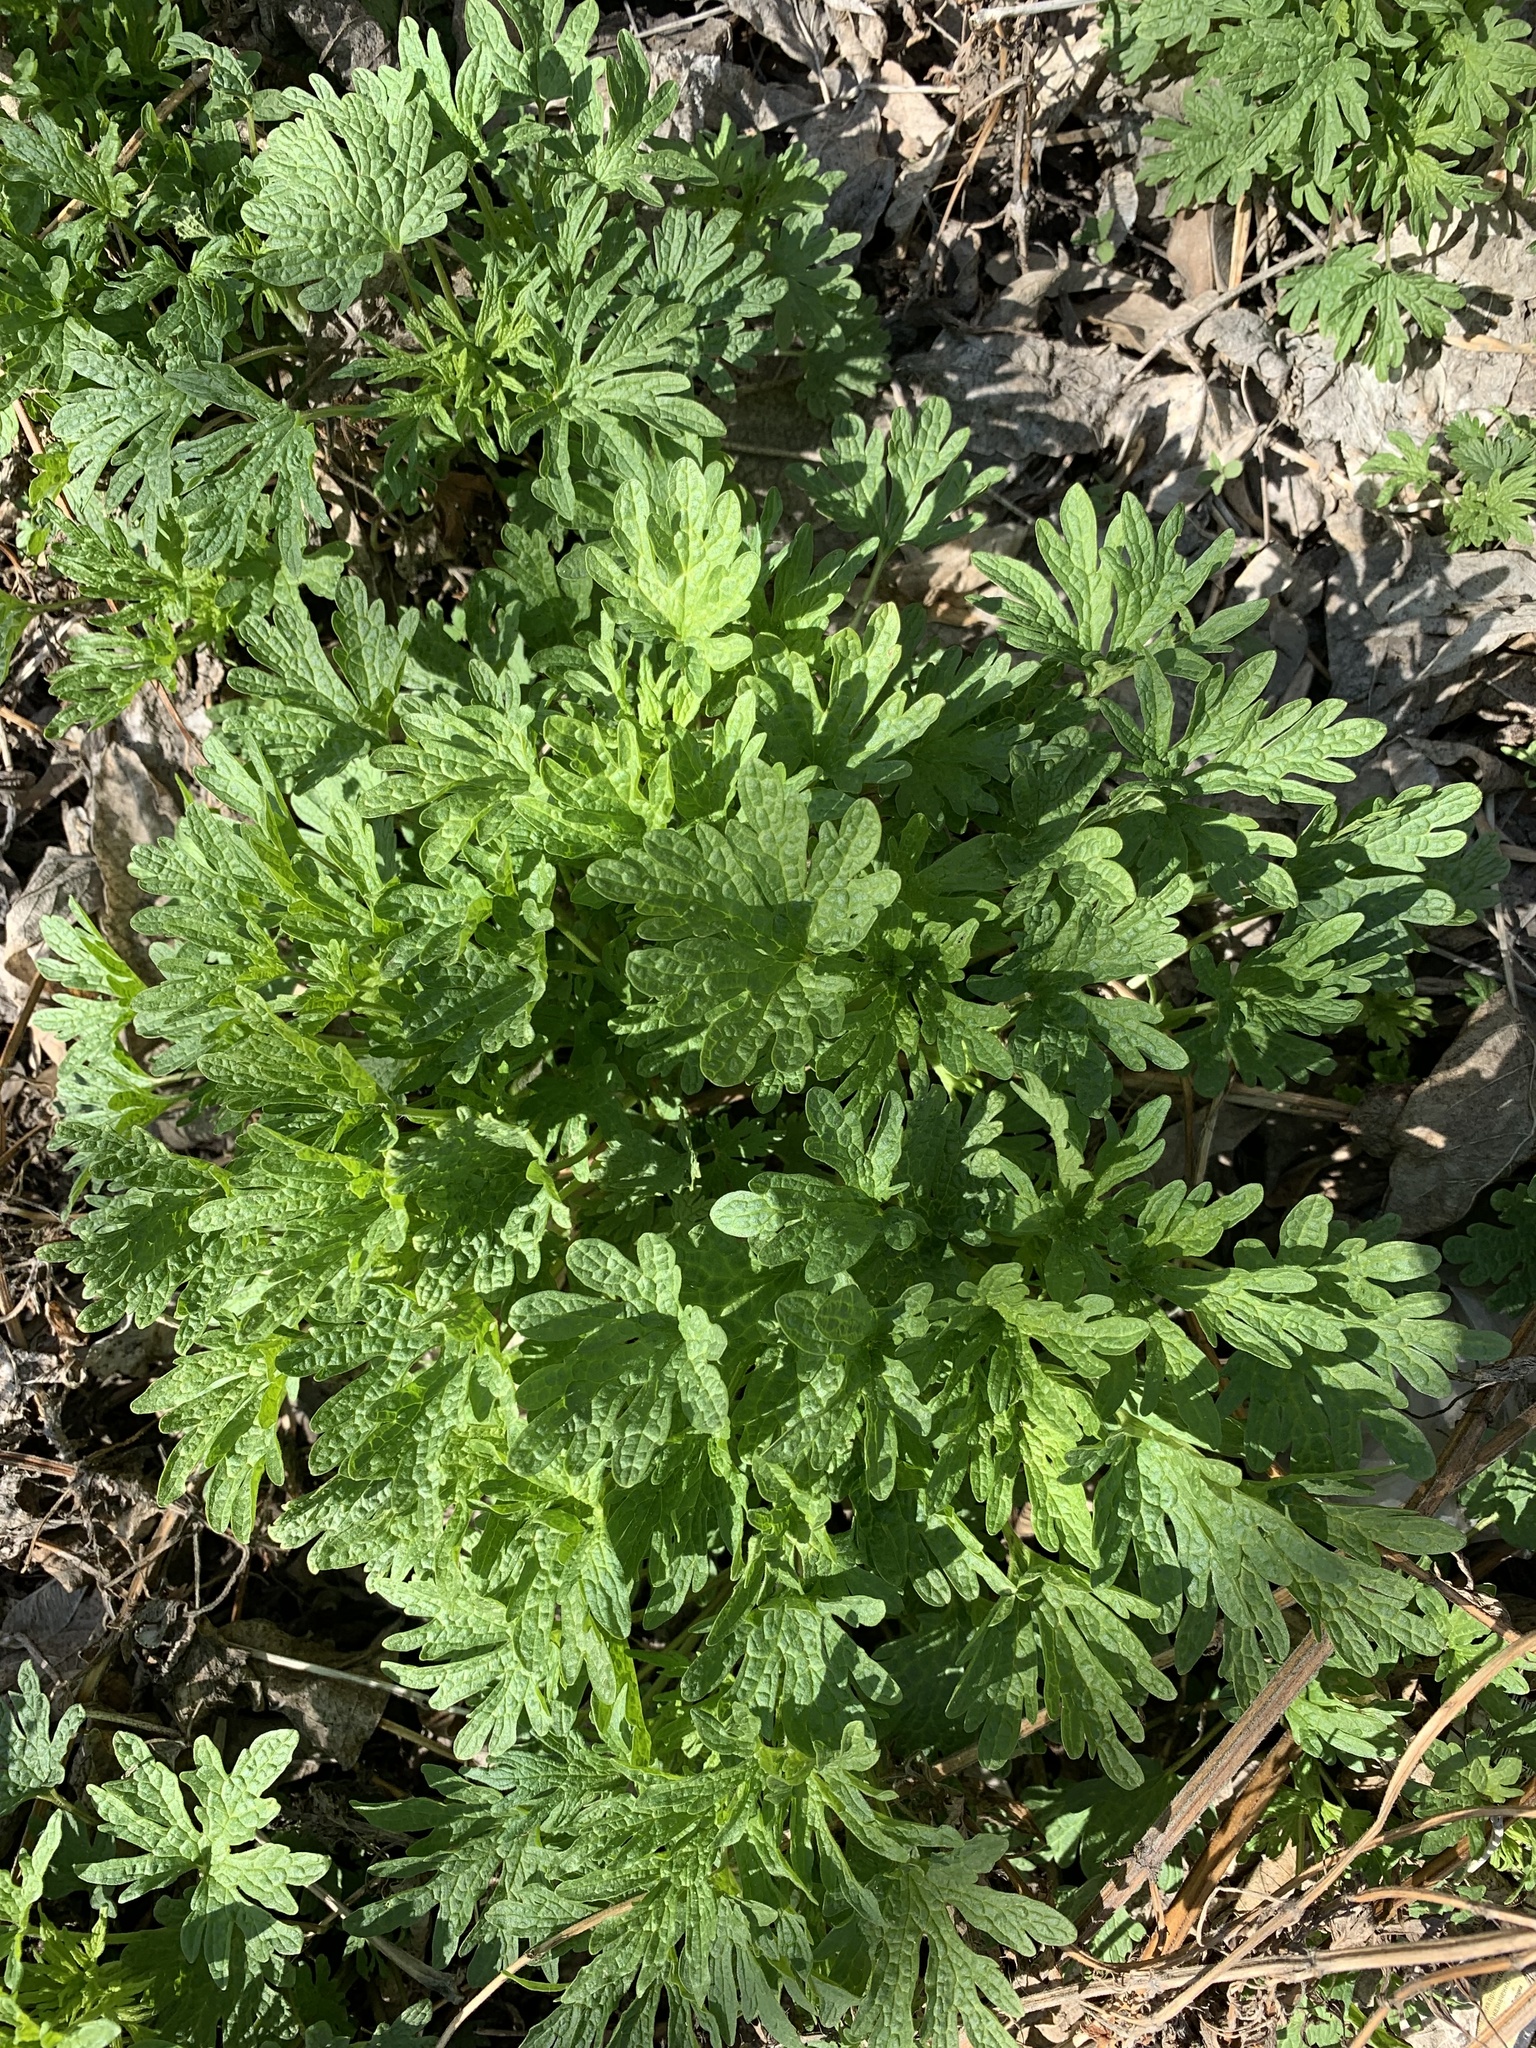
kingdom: Plantae
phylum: Tracheophyta
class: Magnoliopsida
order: Lamiales
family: Lamiaceae
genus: Leonurus
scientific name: Leonurus quinquelobatus
